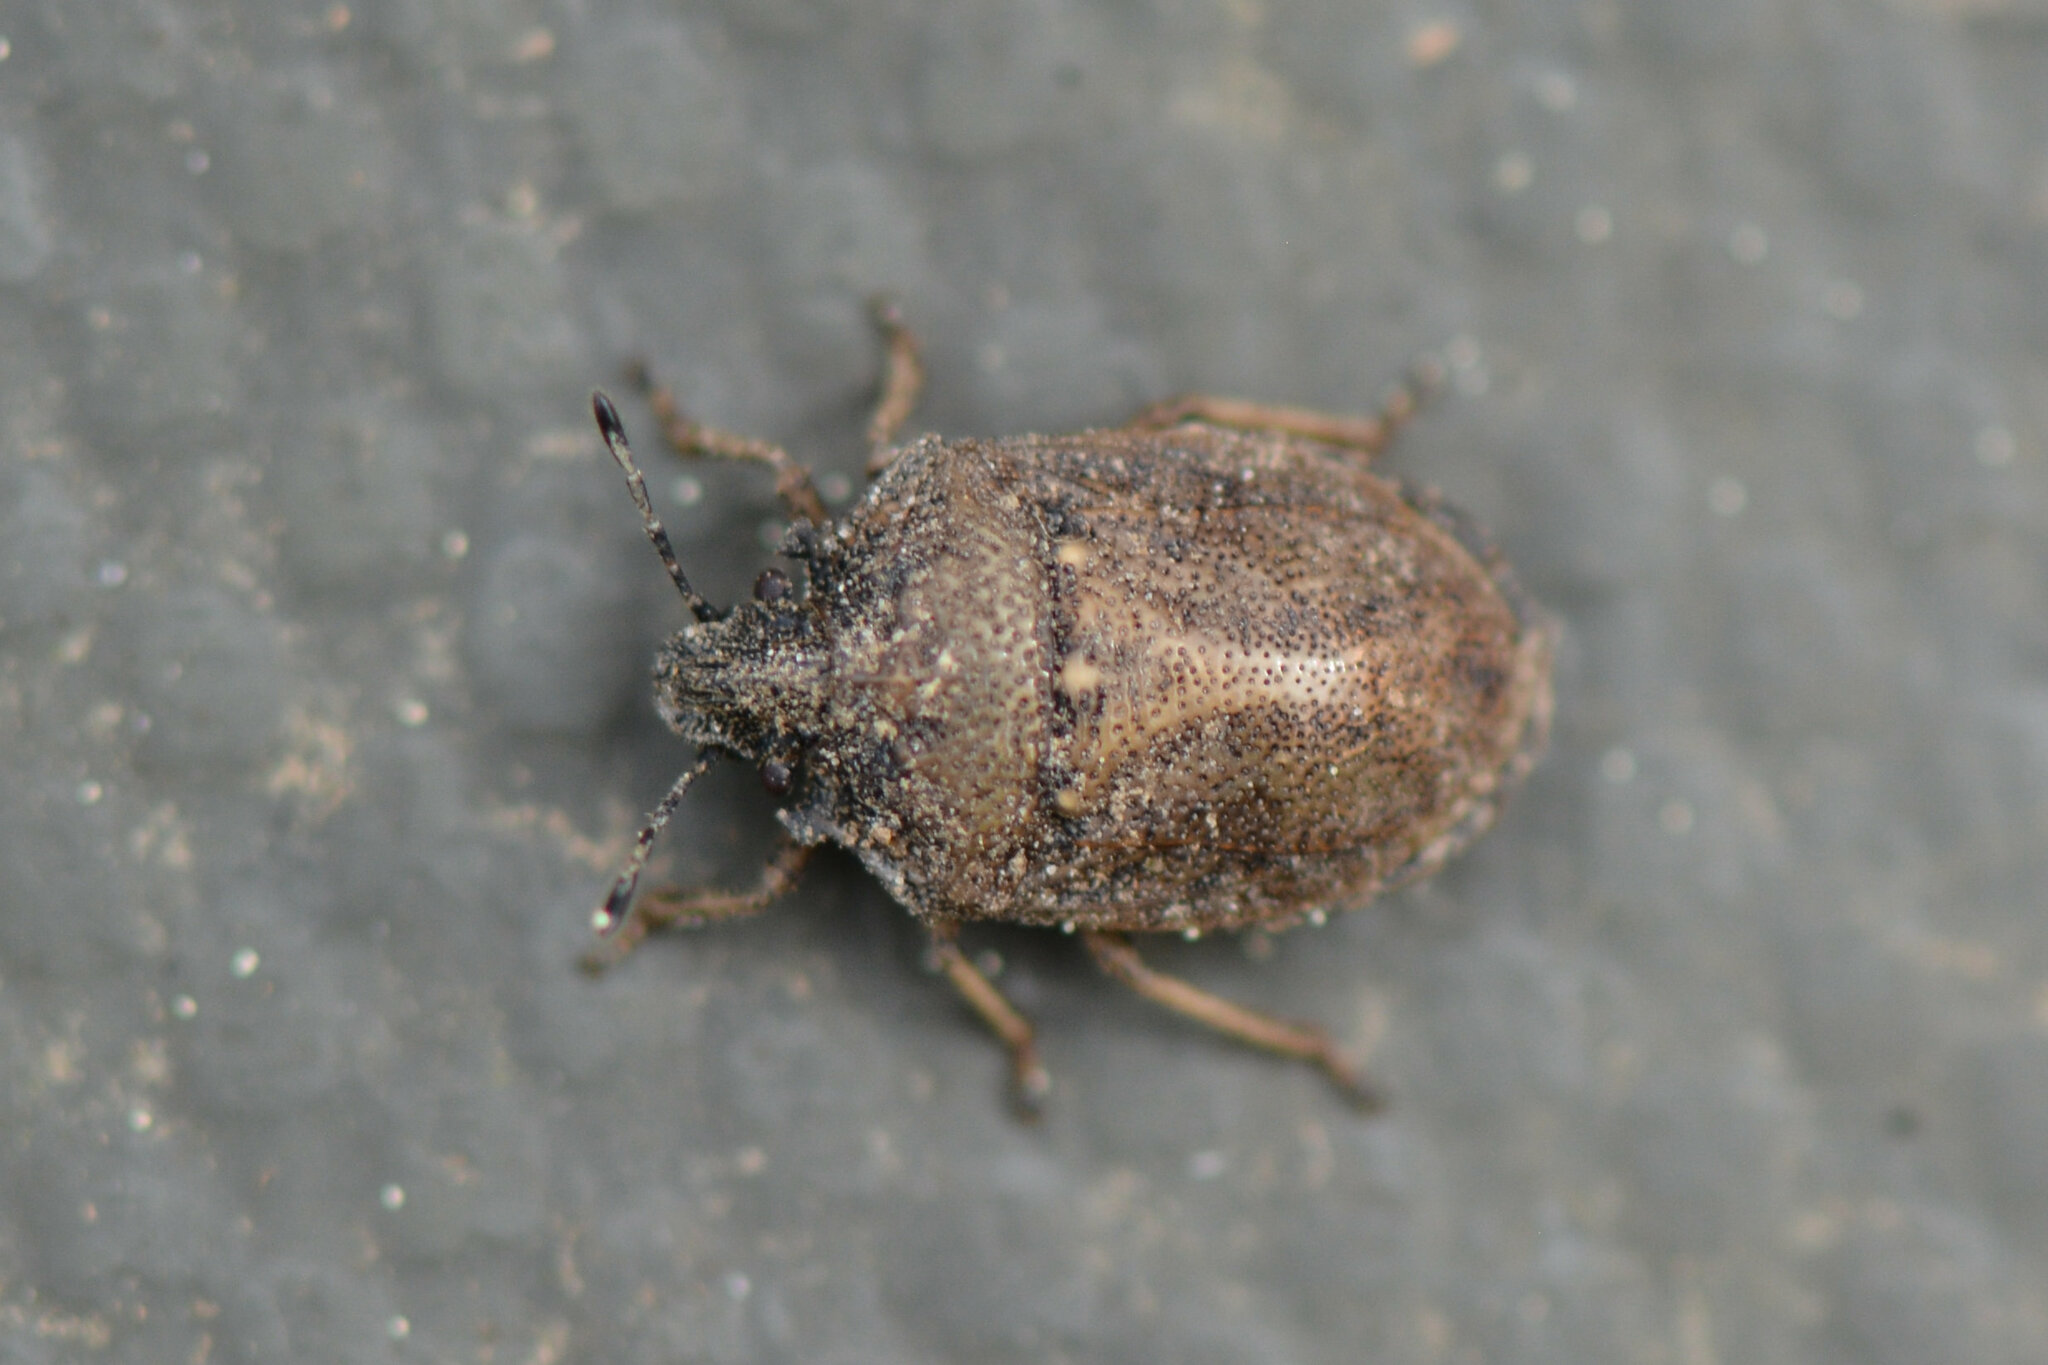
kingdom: Animalia
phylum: Arthropoda
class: Insecta
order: Hemiptera
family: Pentatomidae
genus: Podops
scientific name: Podops inunctus
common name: Turtle bug
